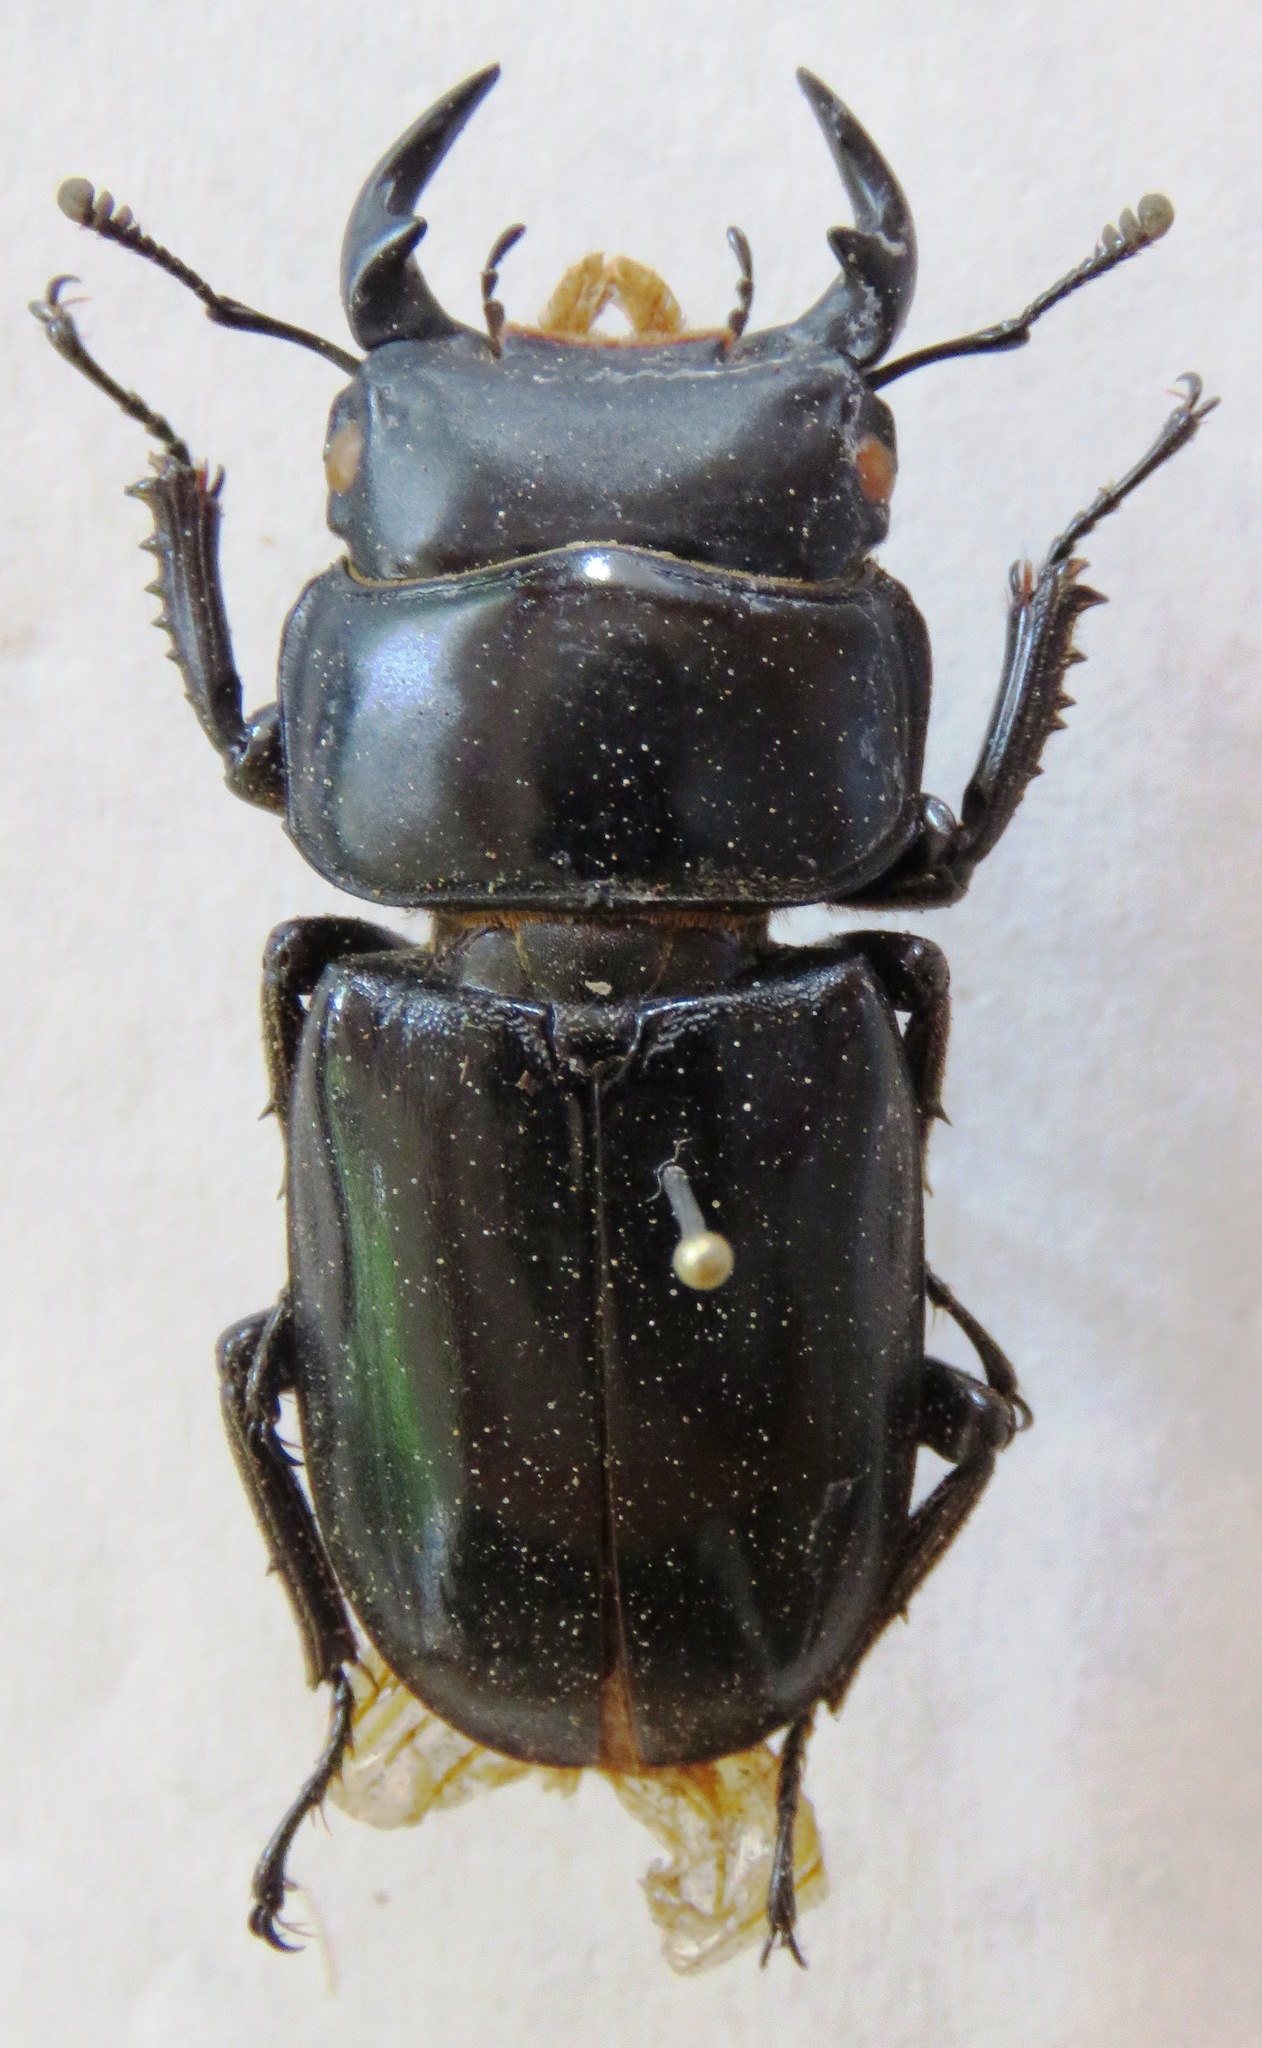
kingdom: Animalia
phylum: Arthropoda
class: Insecta
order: Coleoptera
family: Lucanidae
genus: Dorcus
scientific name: Dorcus yaksha
